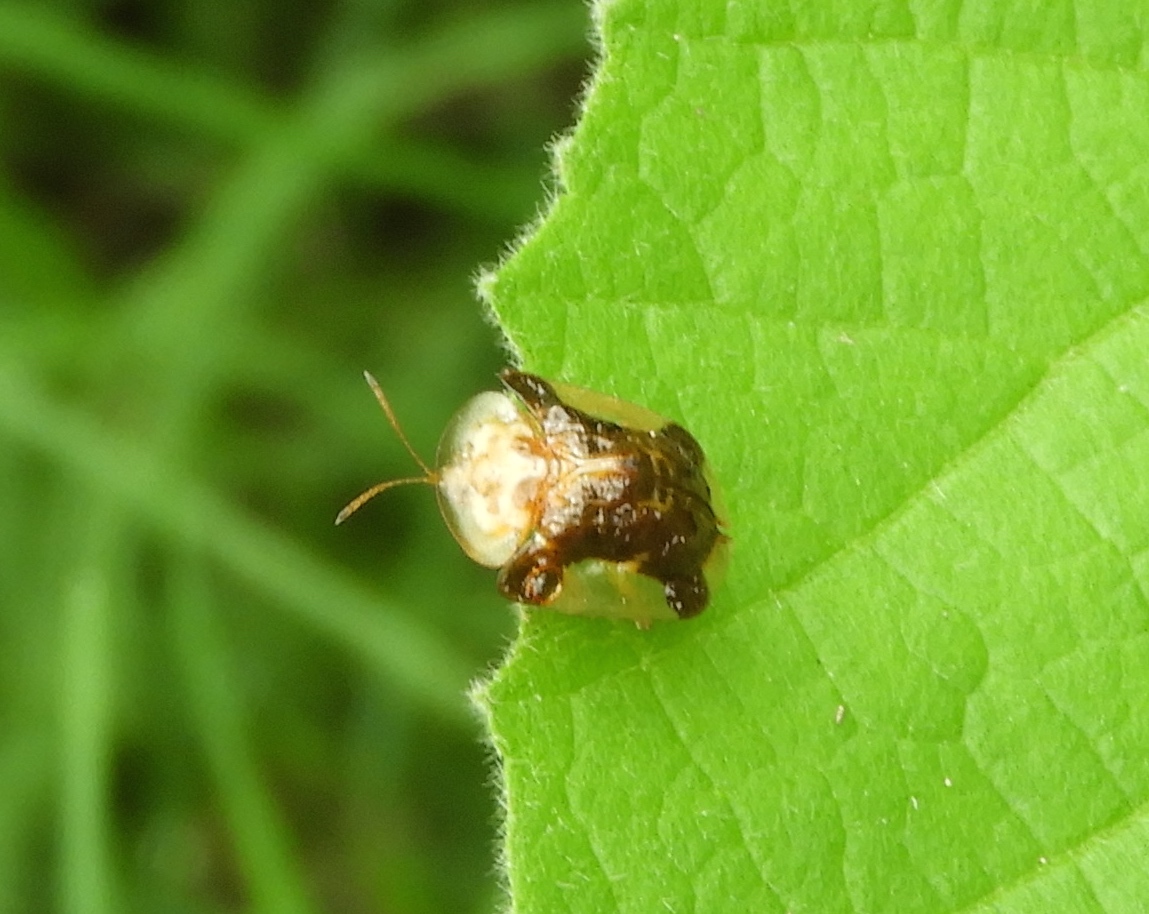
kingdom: Animalia
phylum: Arthropoda
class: Insecta
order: Coleoptera
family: Chrysomelidae
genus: Helocassis
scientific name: Helocassis testudinaria
